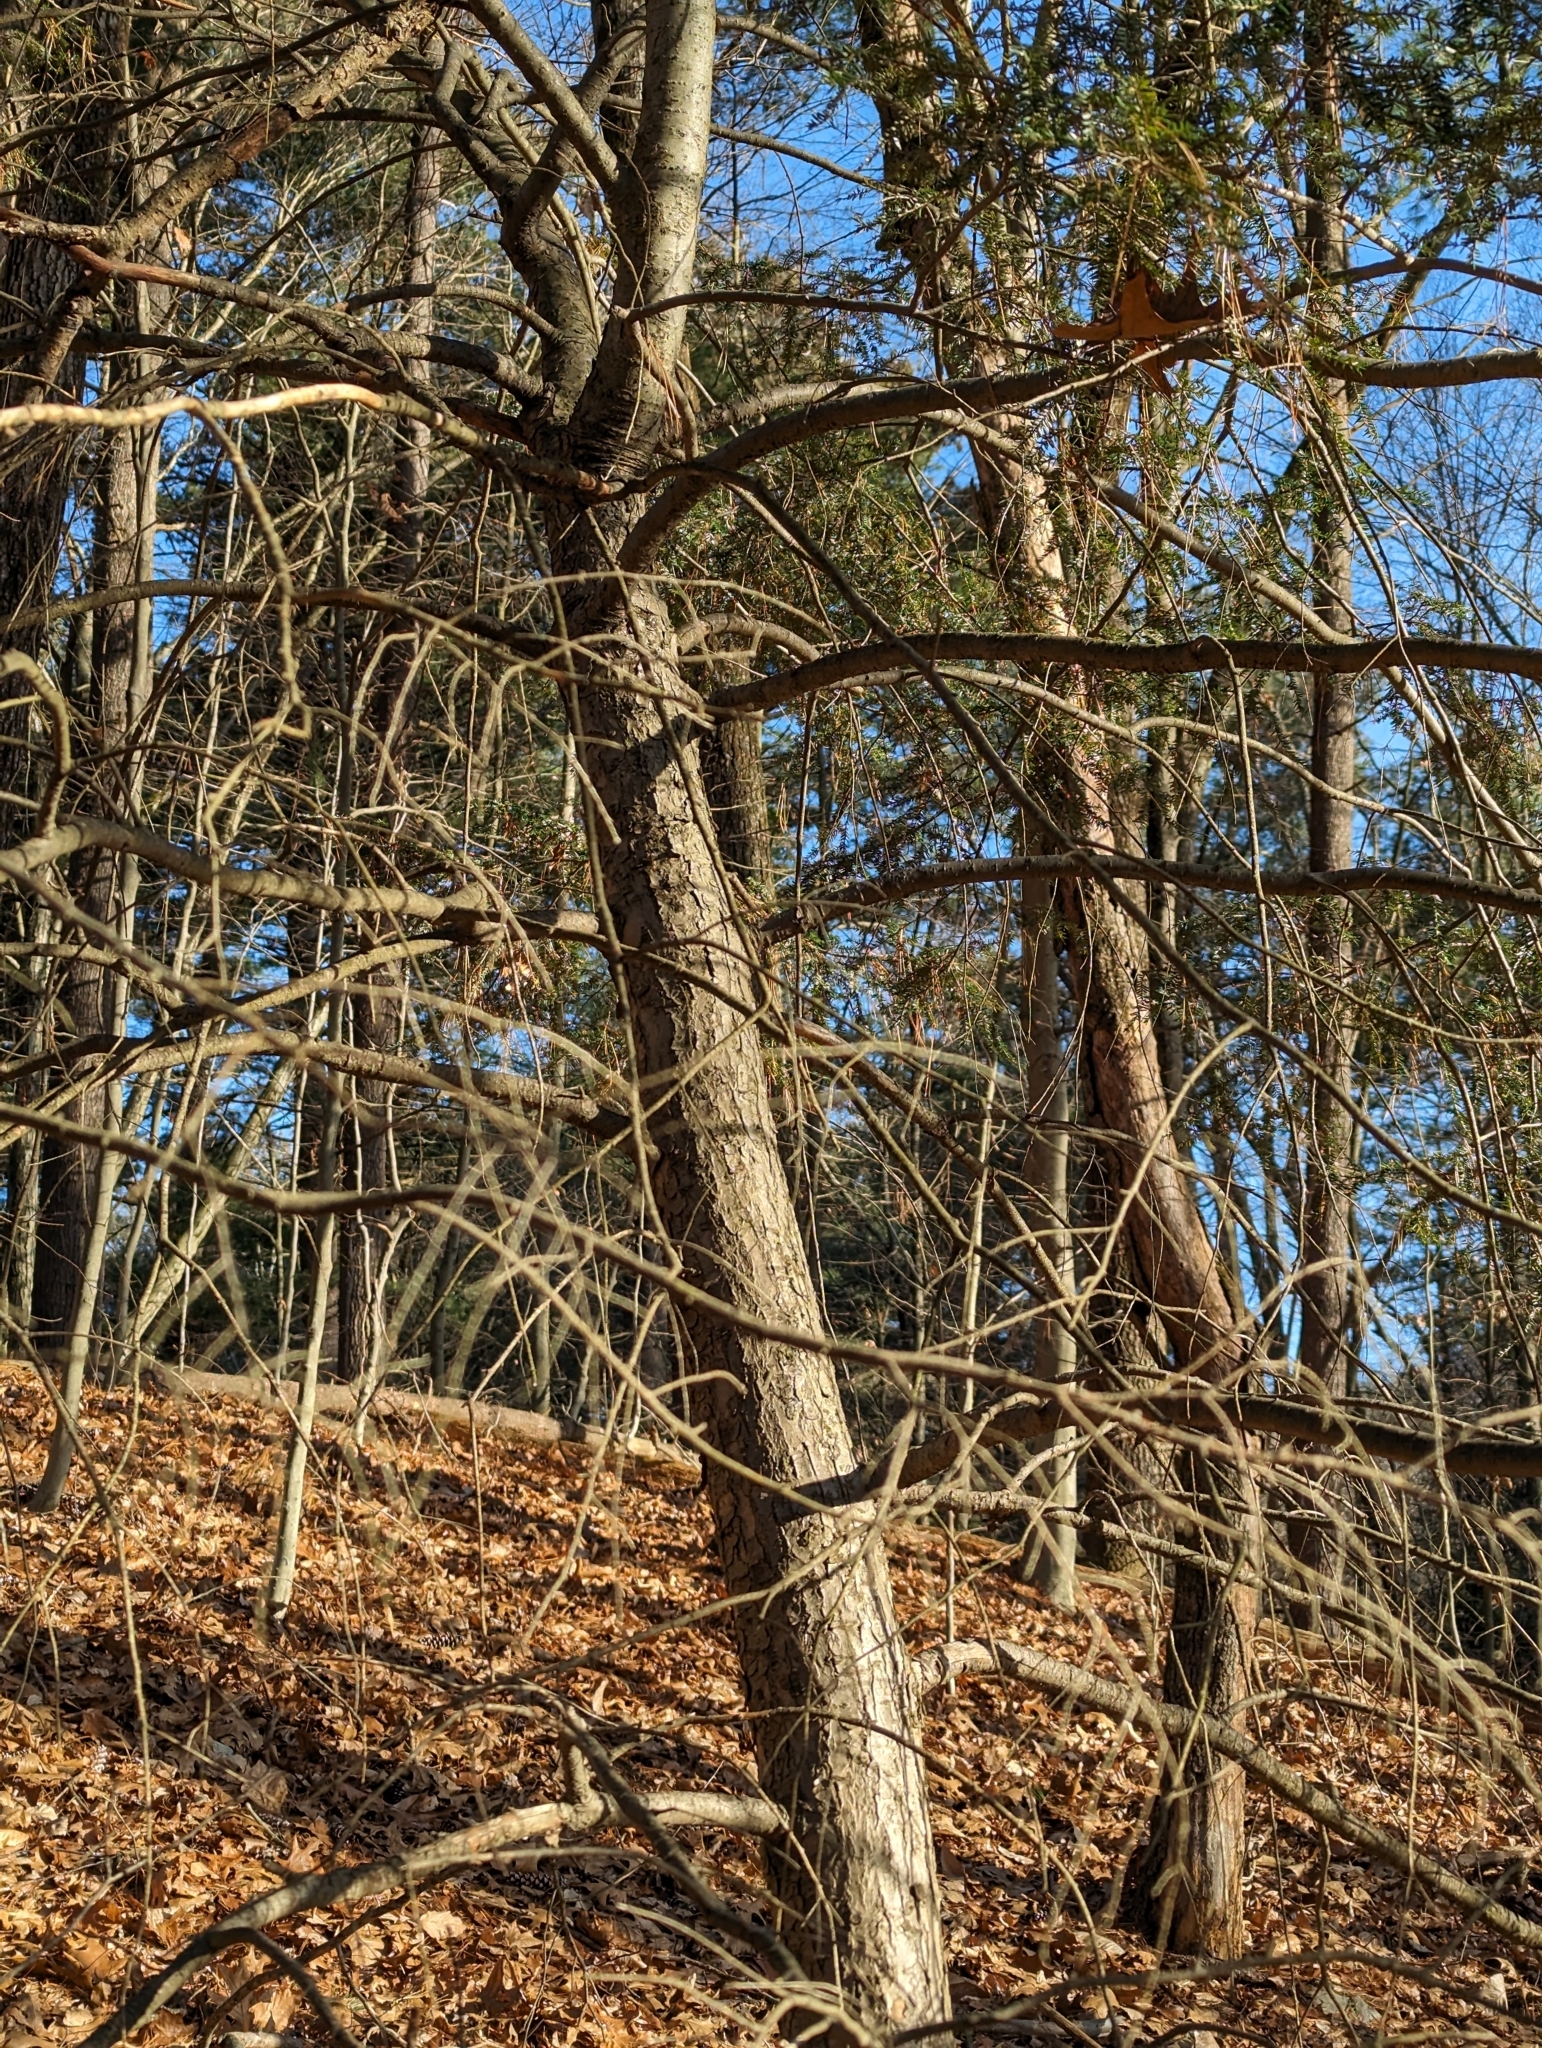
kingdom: Plantae
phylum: Tracheophyta
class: Pinopsida
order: Pinales
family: Pinaceae
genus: Tsuga
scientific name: Tsuga canadensis
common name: Eastern hemlock
